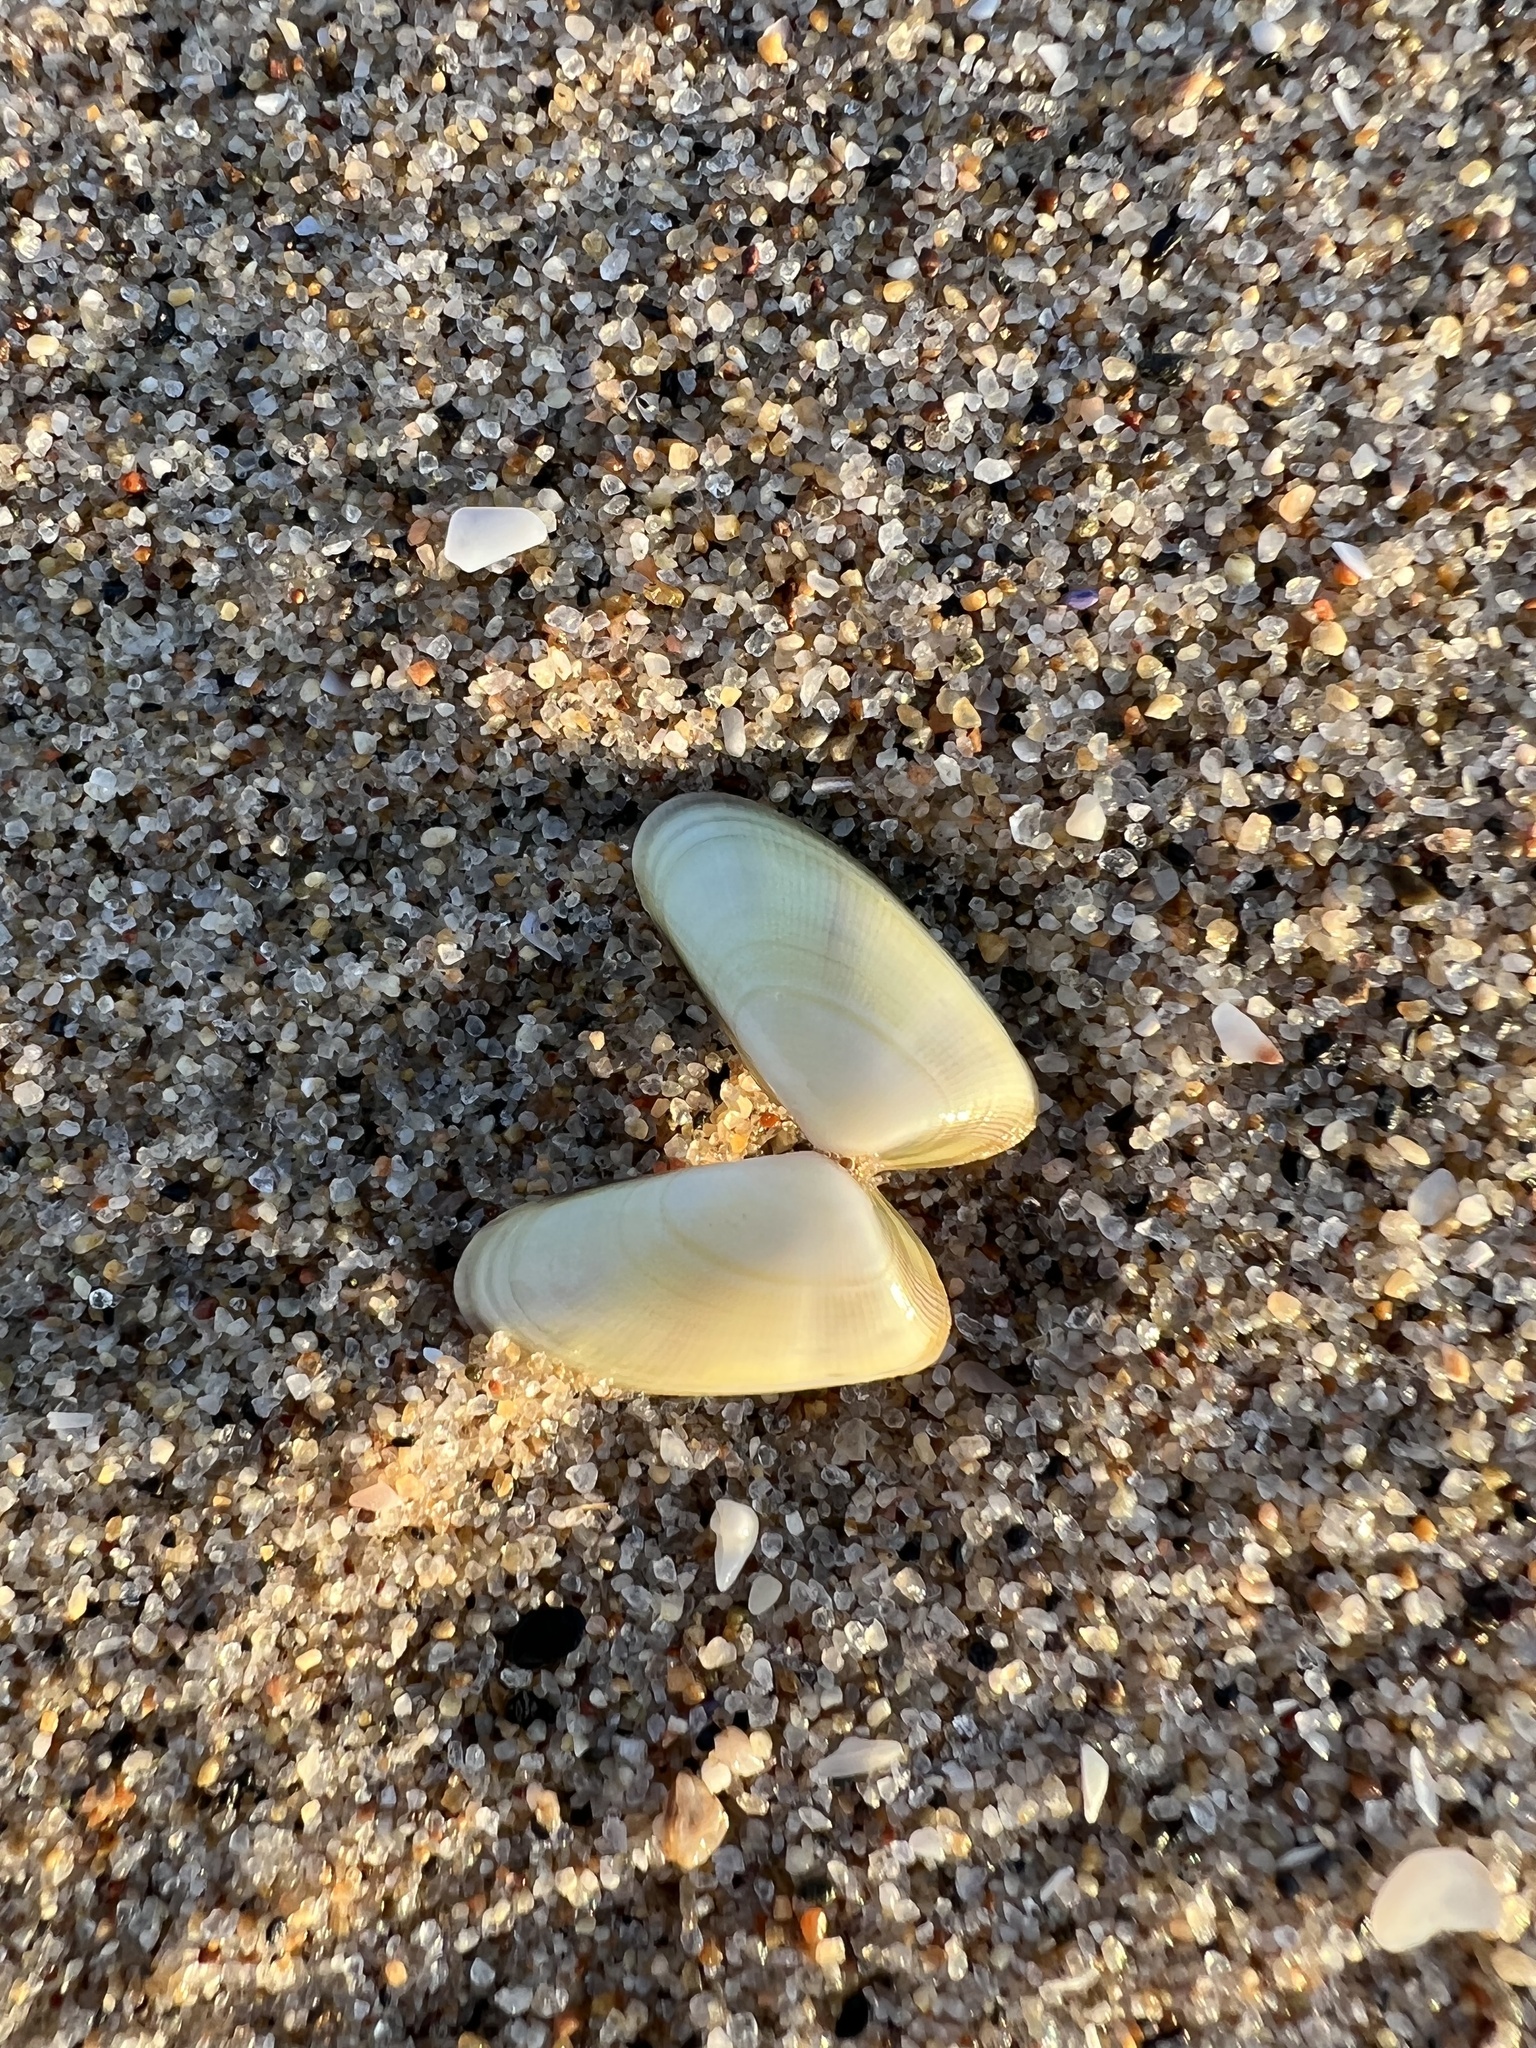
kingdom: Animalia
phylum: Mollusca
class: Bivalvia
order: Cardiida
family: Donacidae
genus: Donax
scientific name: Donax gouldii
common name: Gould beanclam
